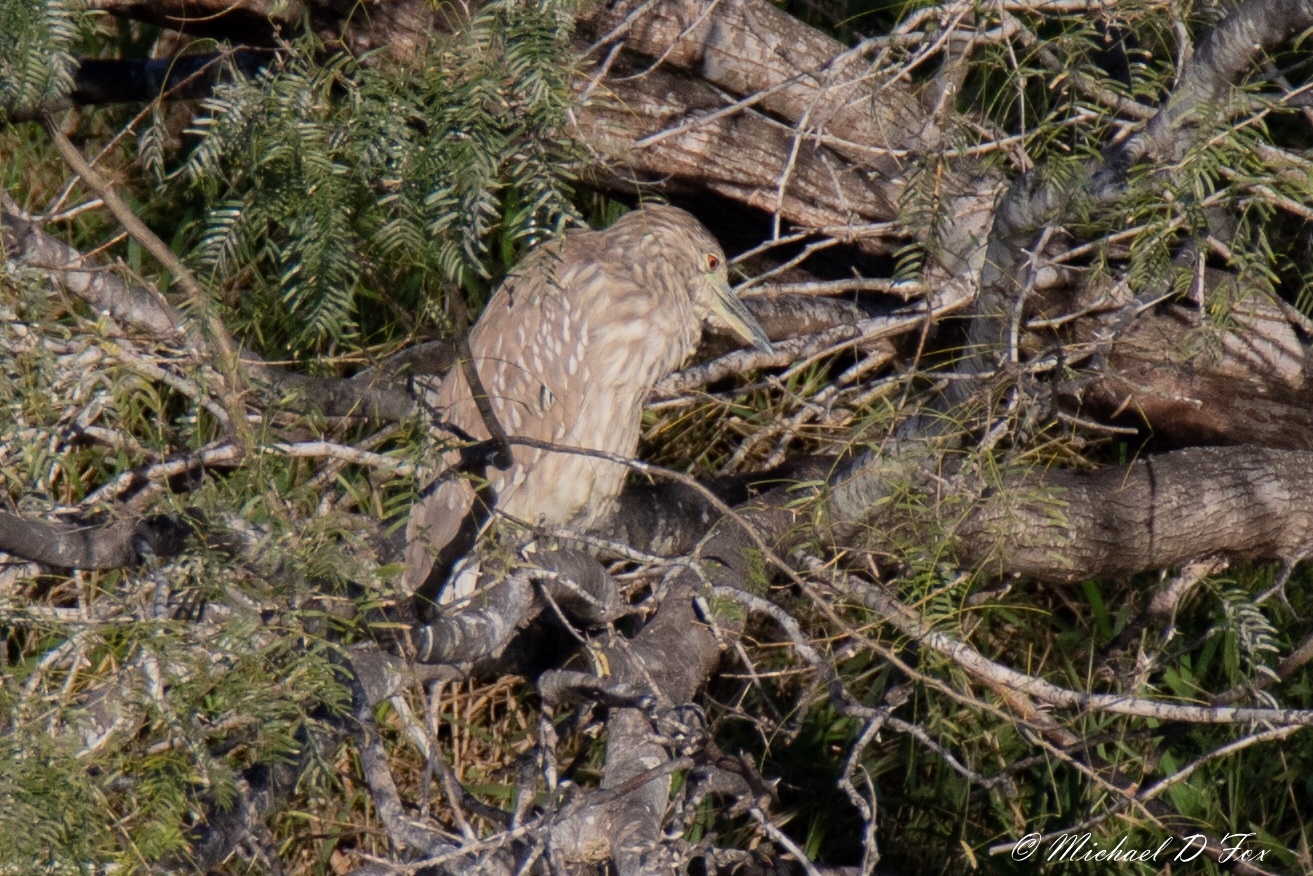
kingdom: Animalia
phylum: Chordata
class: Aves
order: Pelecaniformes
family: Ardeidae
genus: Nycticorax
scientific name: Nycticorax nycticorax
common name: Black-crowned night heron
